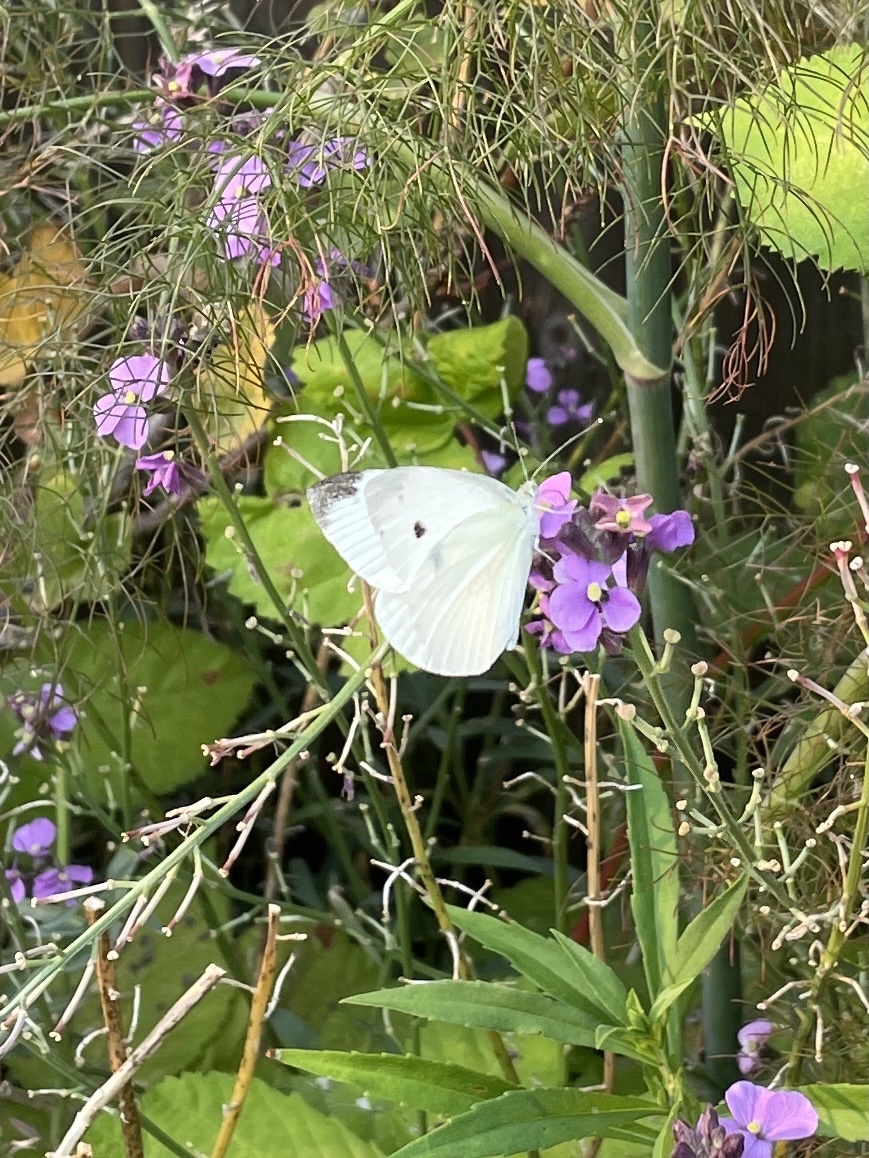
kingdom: Animalia
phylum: Arthropoda
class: Insecta
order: Lepidoptera
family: Pieridae
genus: Pieris
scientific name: Pieris rapae
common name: Small white
